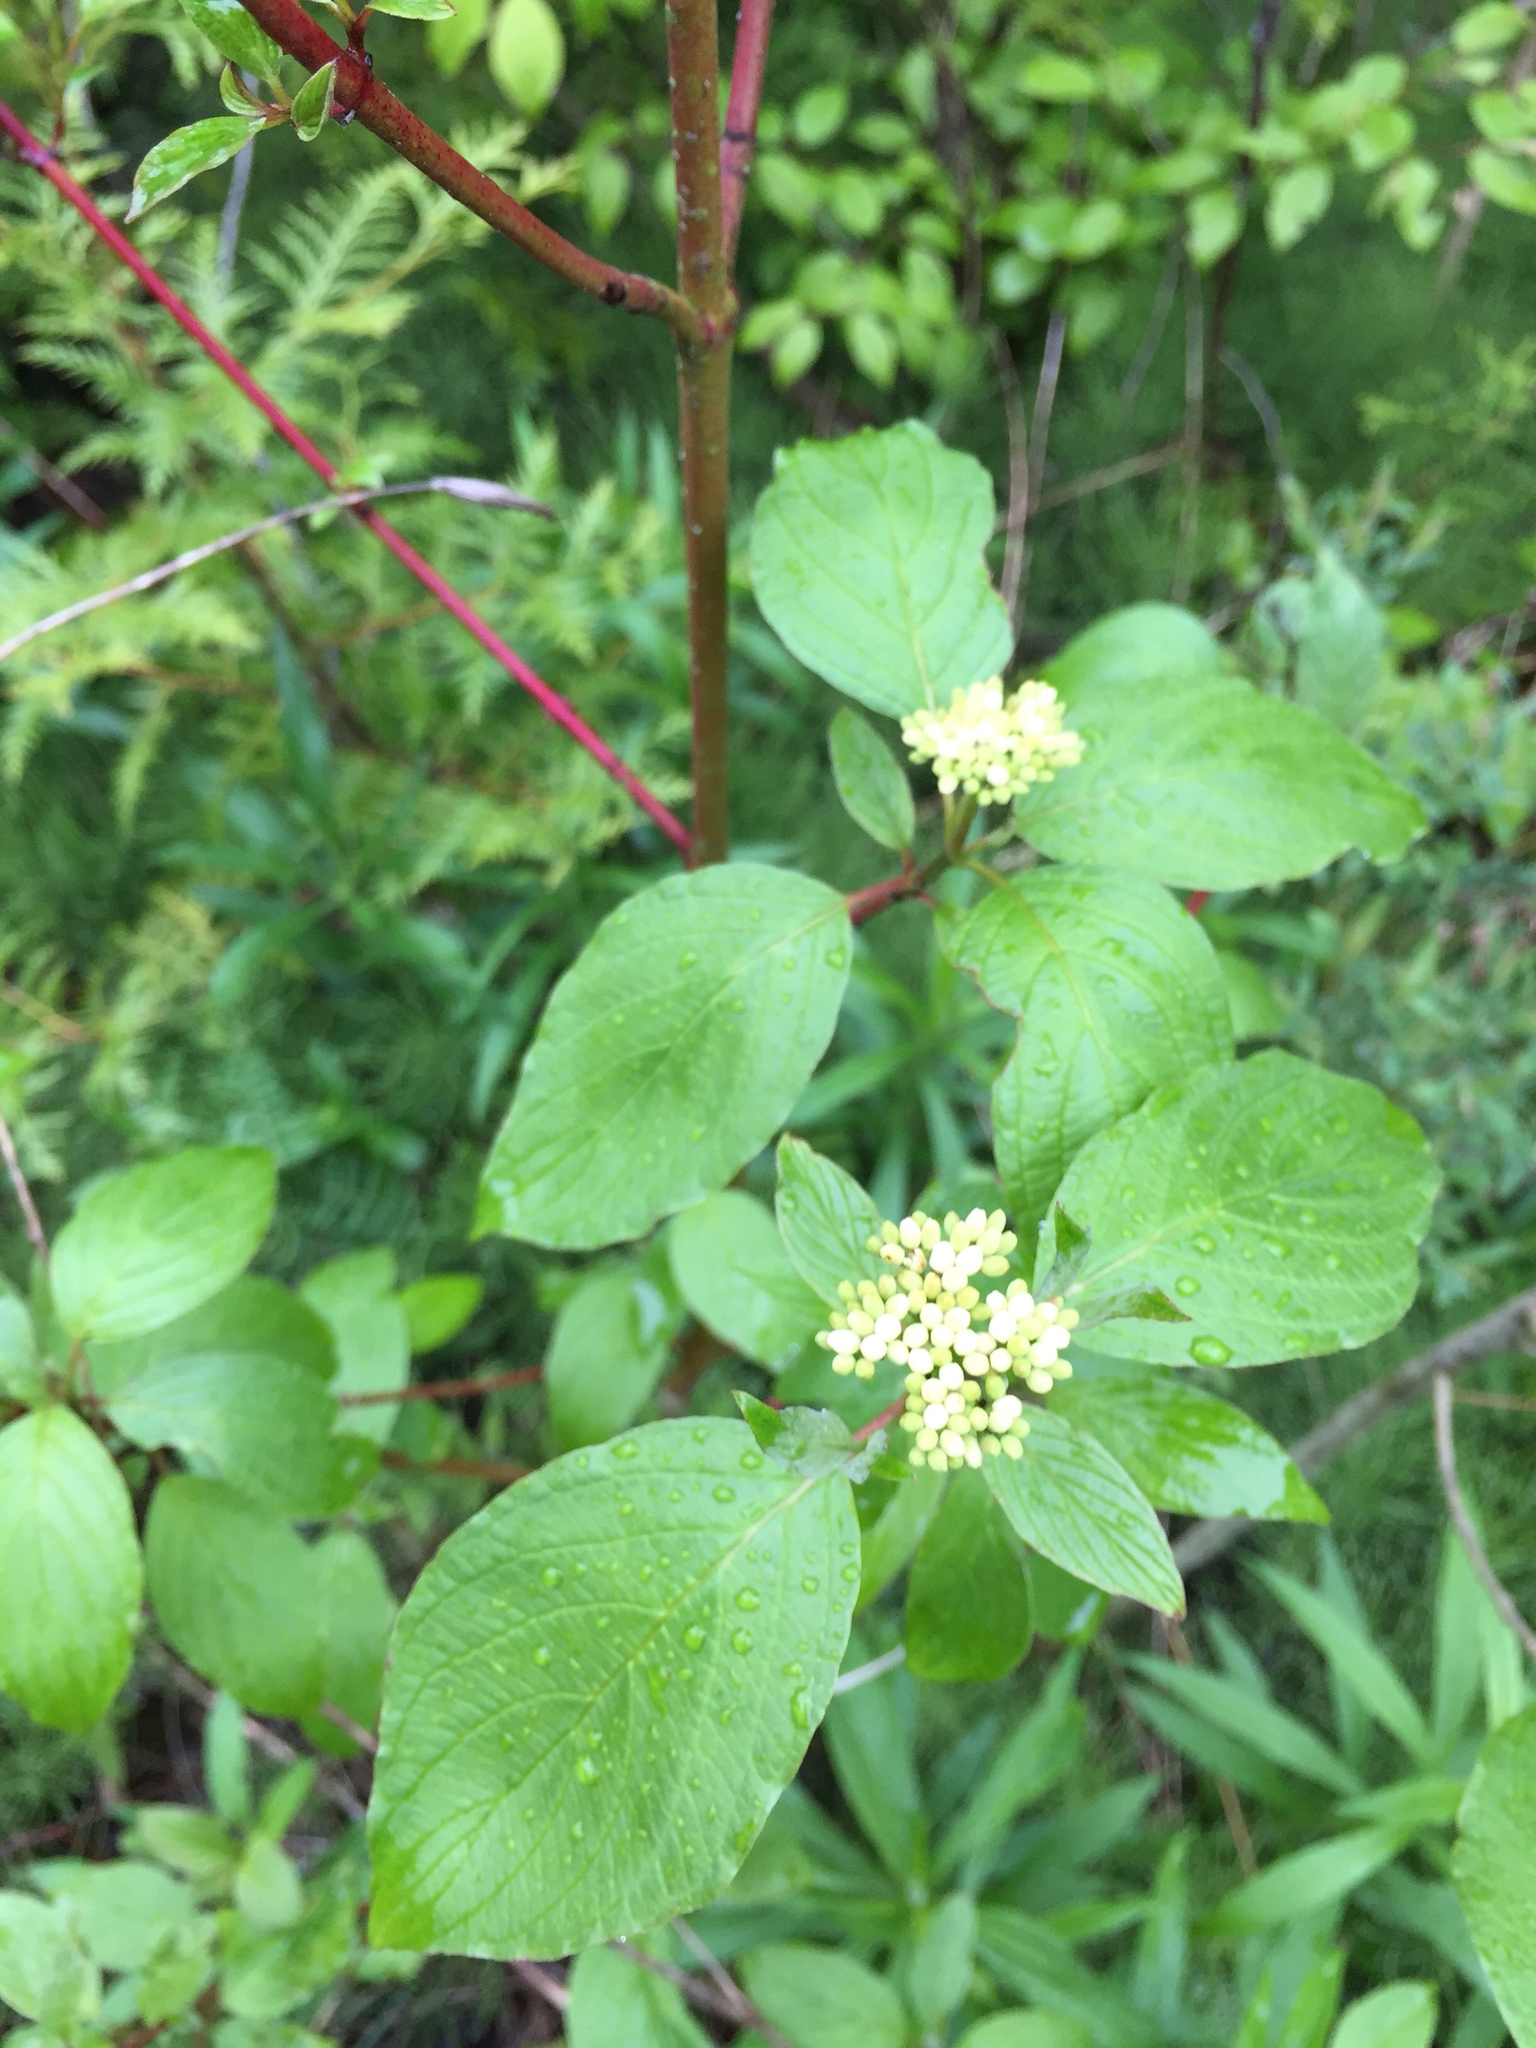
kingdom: Plantae
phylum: Tracheophyta
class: Magnoliopsida
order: Cornales
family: Cornaceae
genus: Cornus
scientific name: Cornus sericea
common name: Red-osier dogwood
